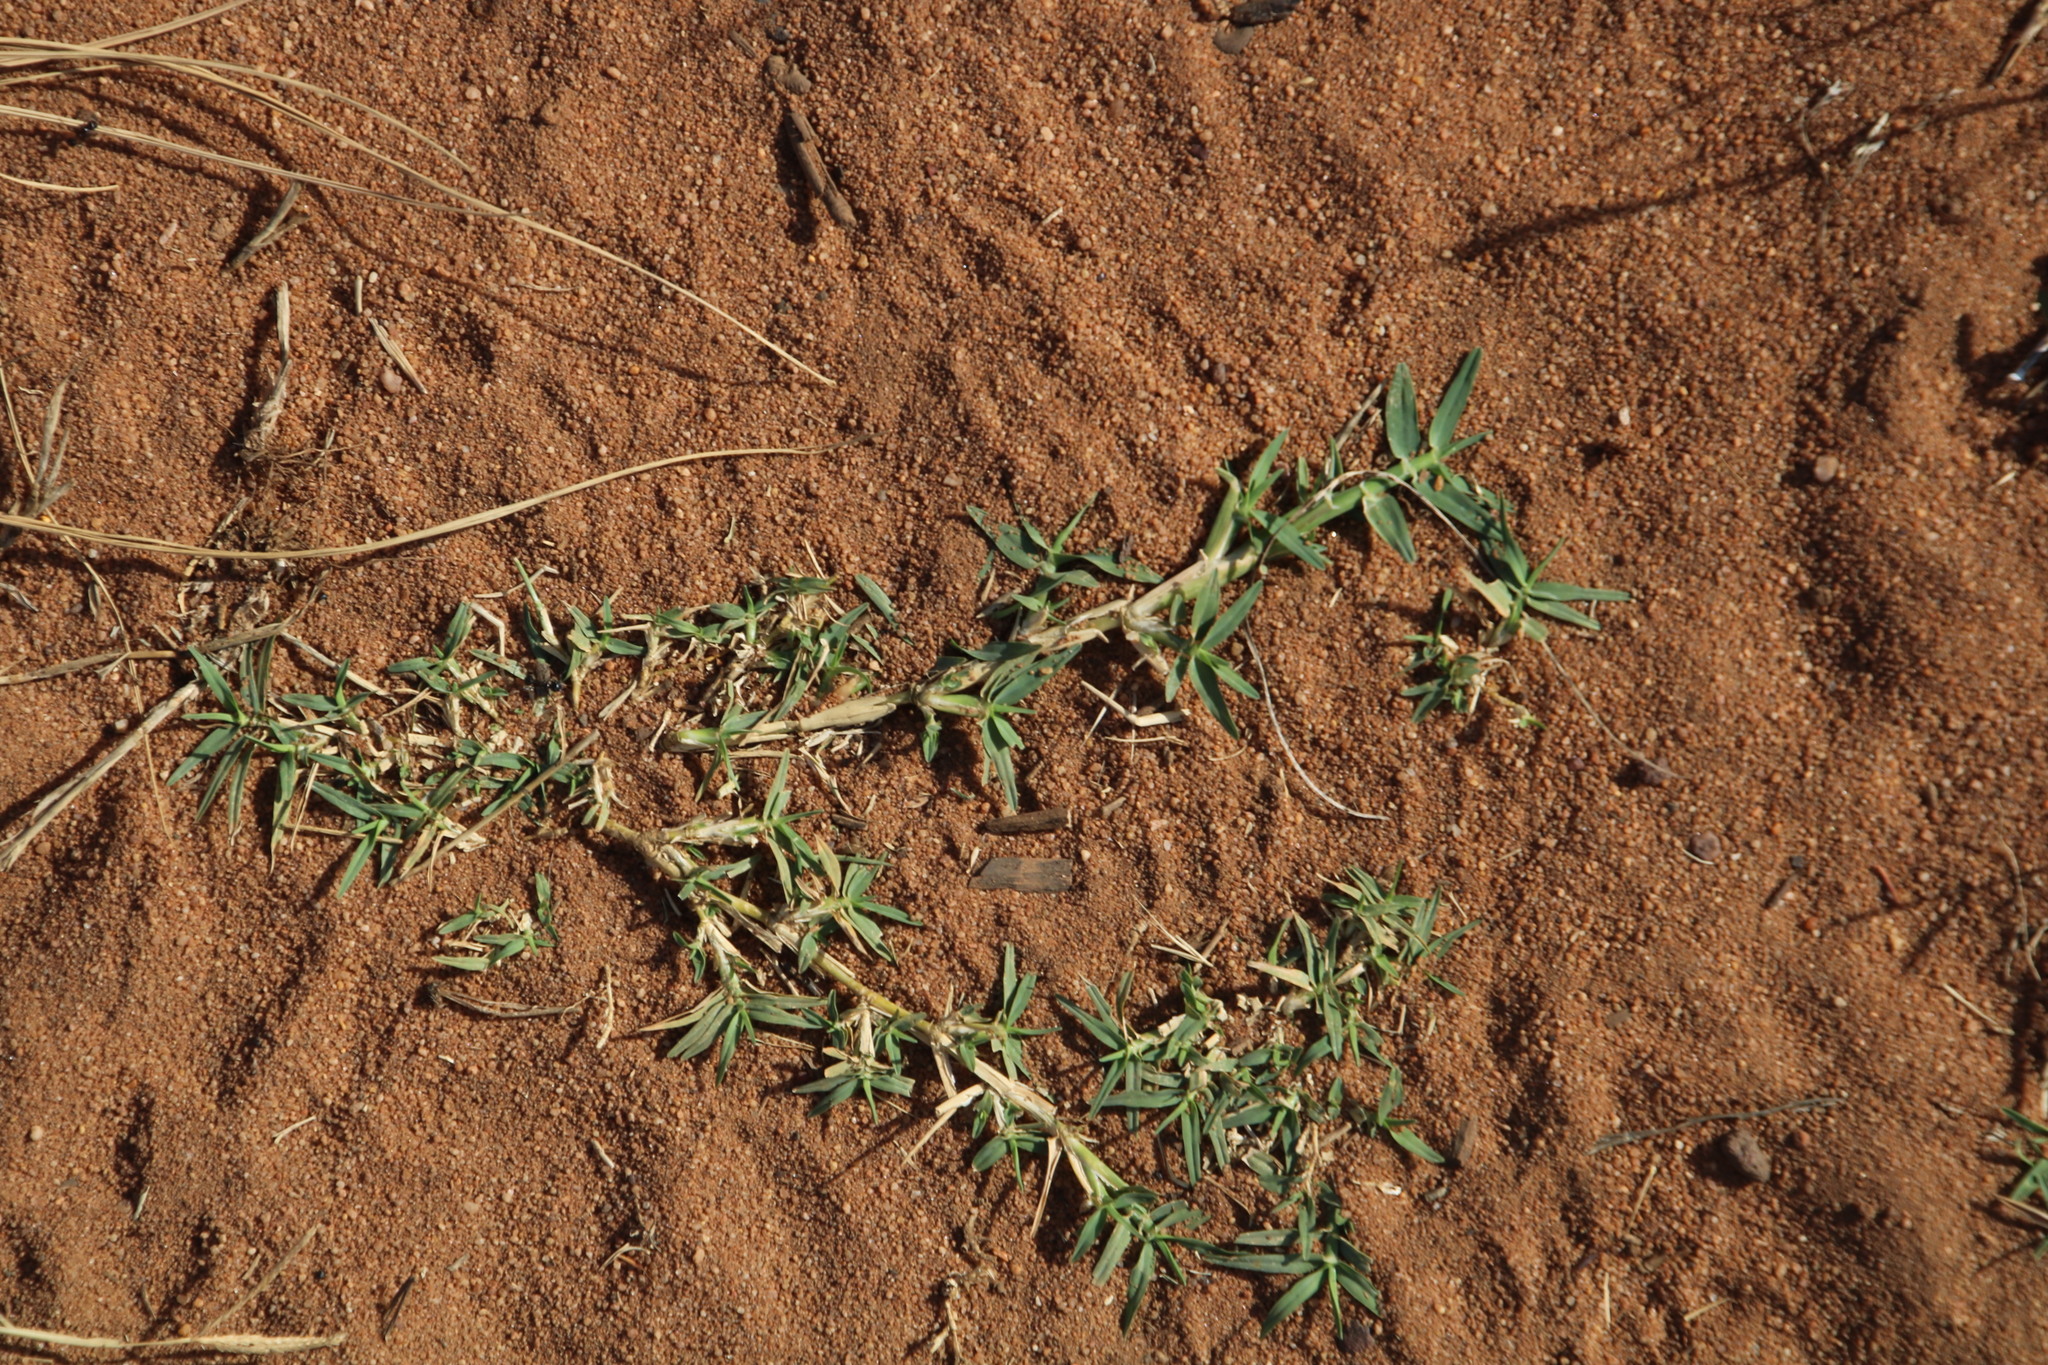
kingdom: Plantae
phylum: Tracheophyta
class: Liliopsida
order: Poales
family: Poaceae
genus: Cynodon
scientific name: Cynodon dactylon
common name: Bermuda grass
